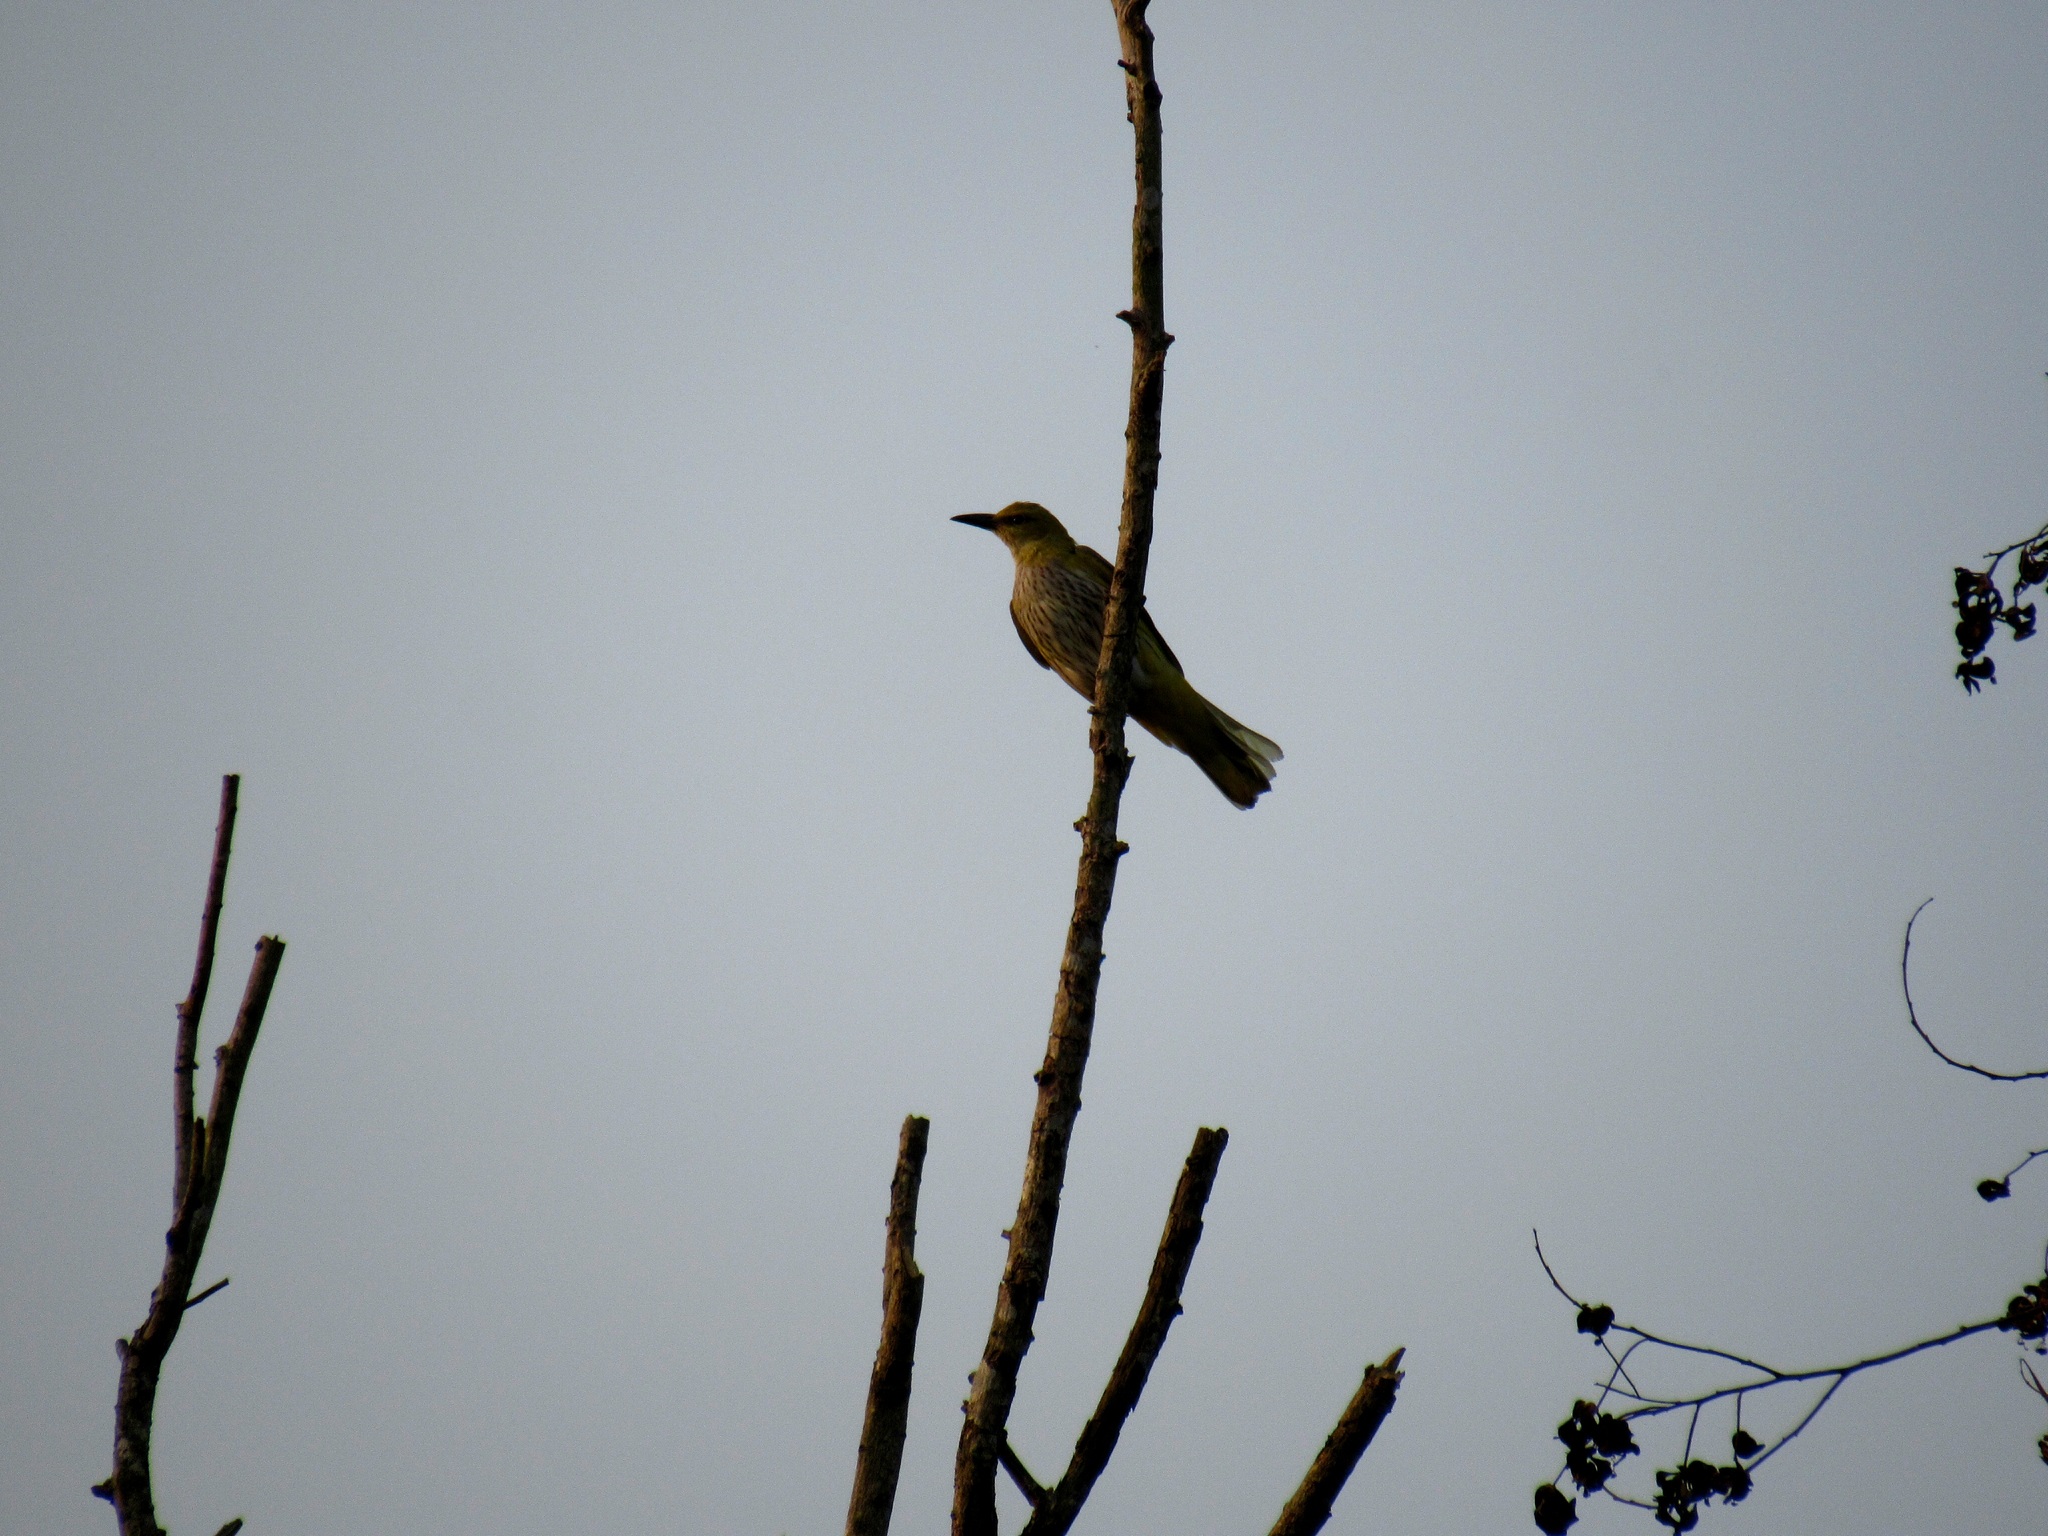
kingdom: Animalia
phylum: Chordata
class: Aves
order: Passeriformes
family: Oriolidae
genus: Oriolus
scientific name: Oriolus kundoo
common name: Indian golden oriole
